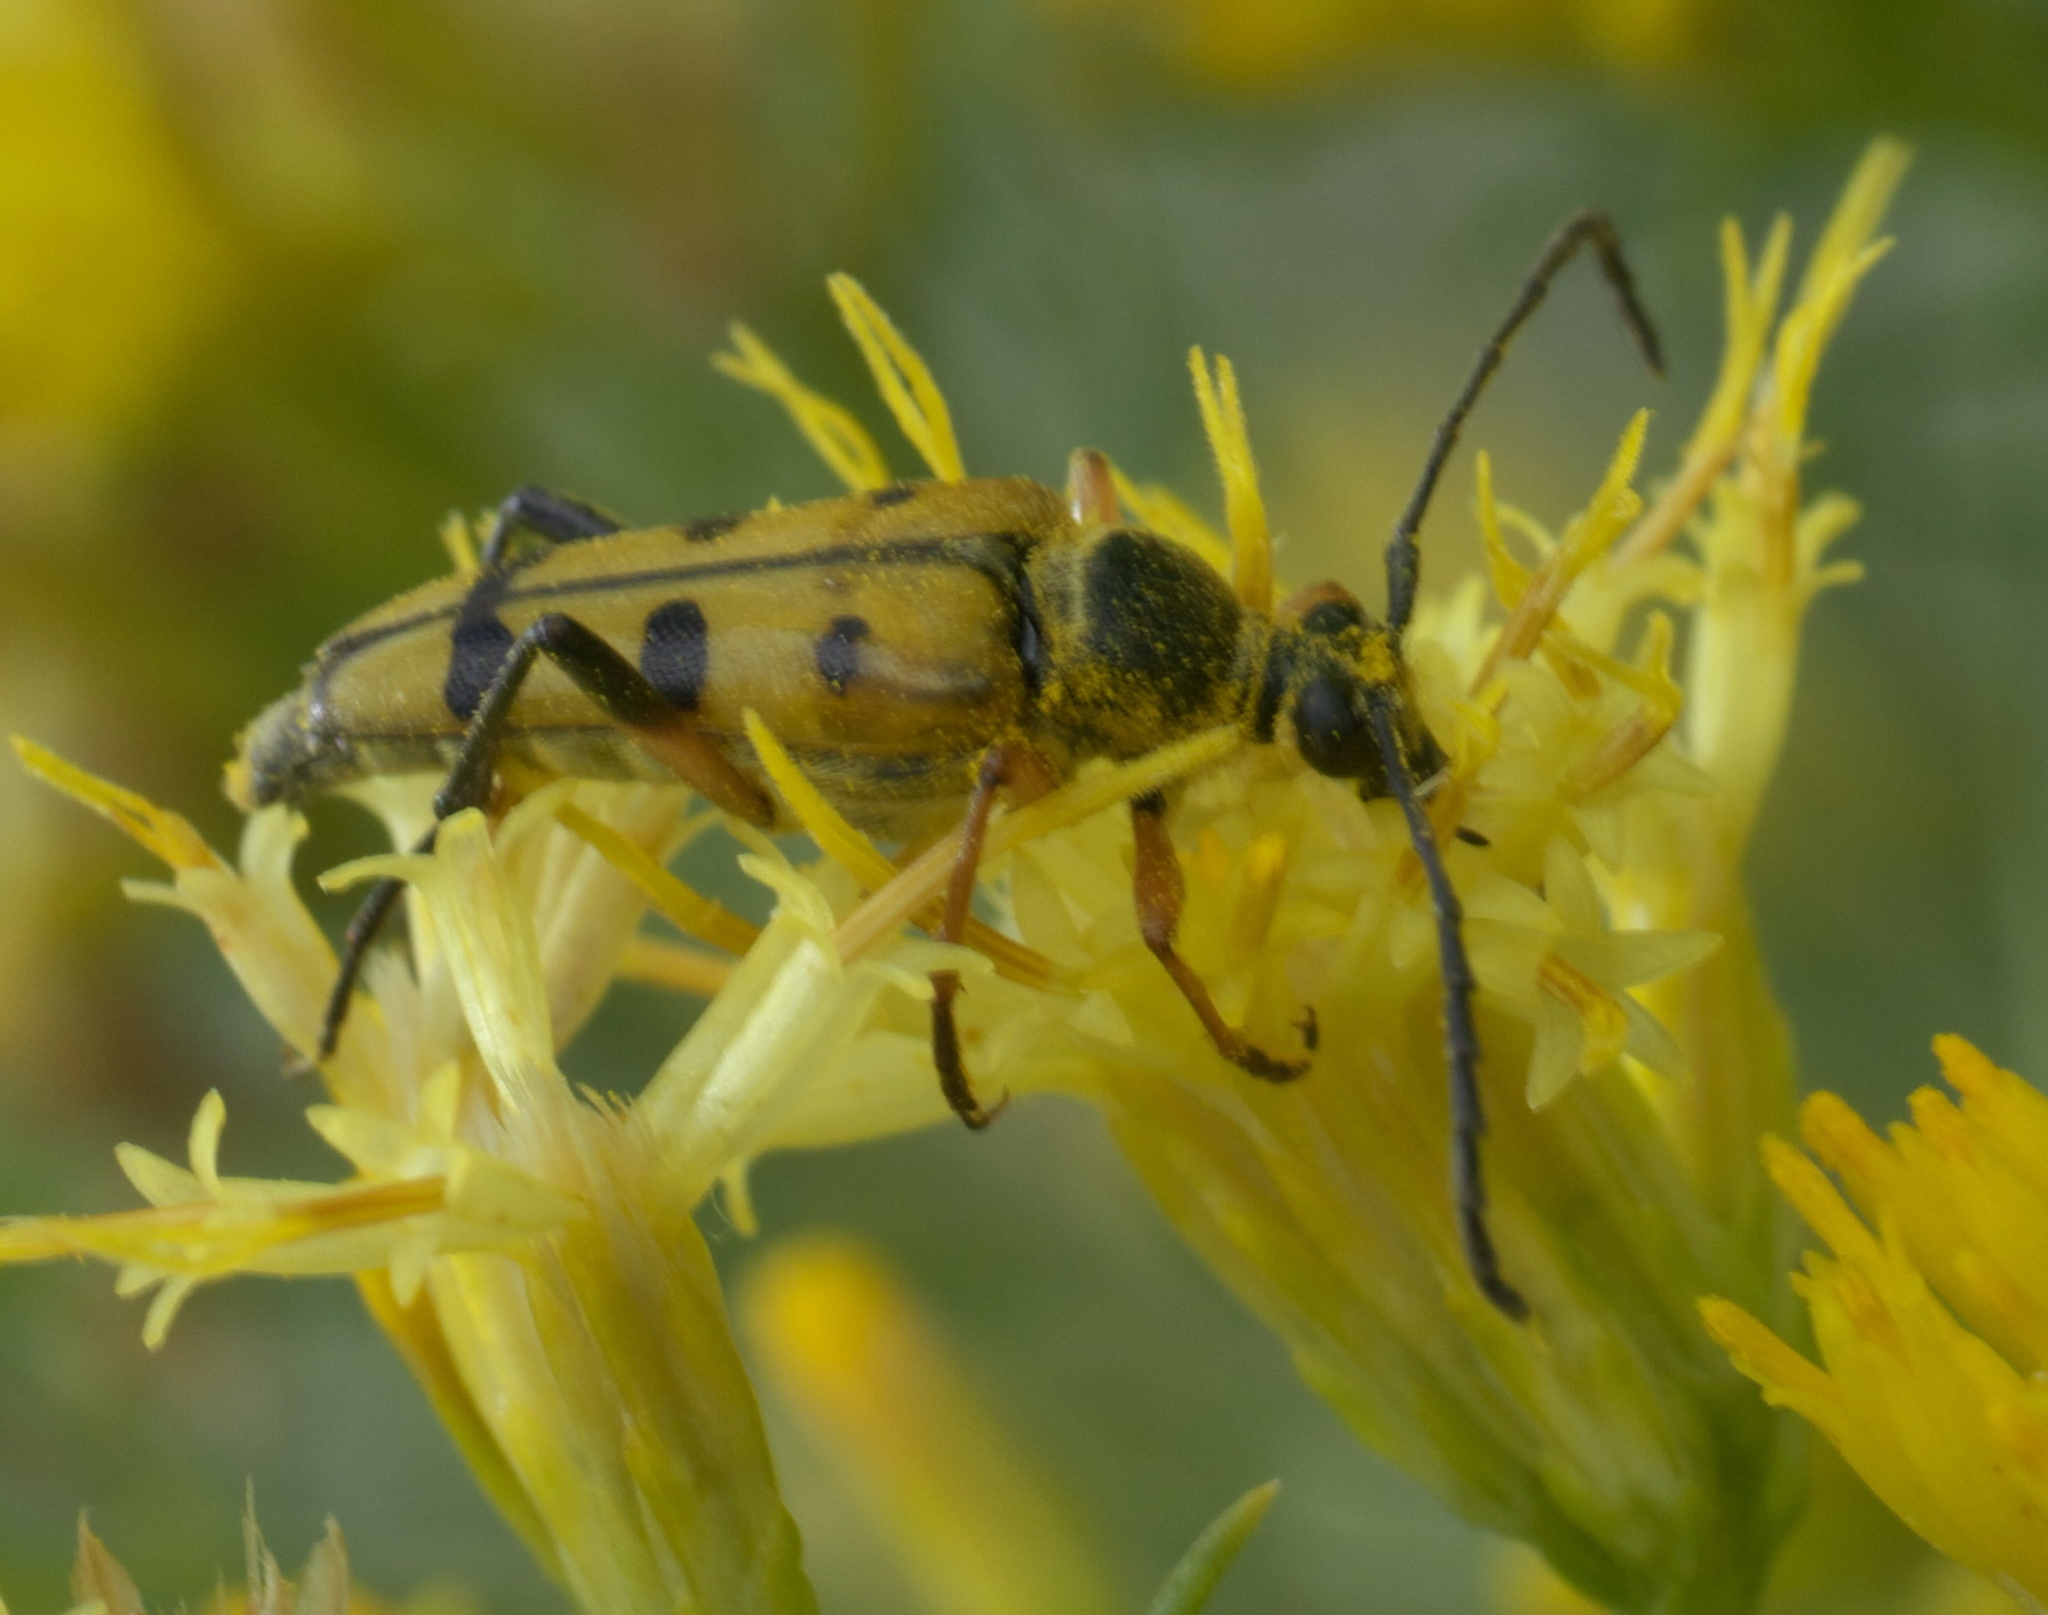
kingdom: Animalia
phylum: Arthropoda
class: Insecta
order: Coleoptera
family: Cerambycidae
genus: Typocerus
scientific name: Typocerus balteatus
